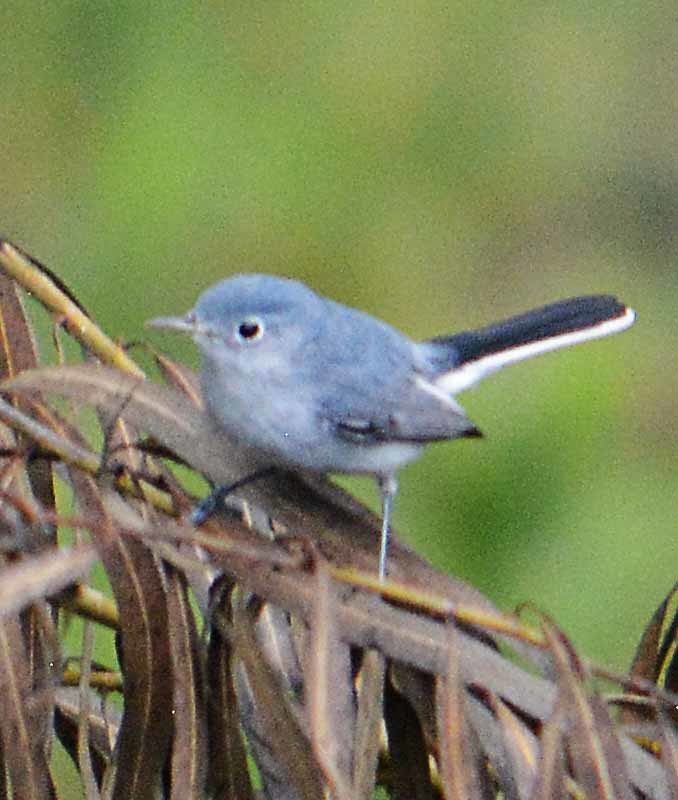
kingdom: Animalia
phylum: Chordata
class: Aves
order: Passeriformes
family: Polioptilidae
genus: Polioptila
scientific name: Polioptila caerulea
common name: Blue-gray gnatcatcher
